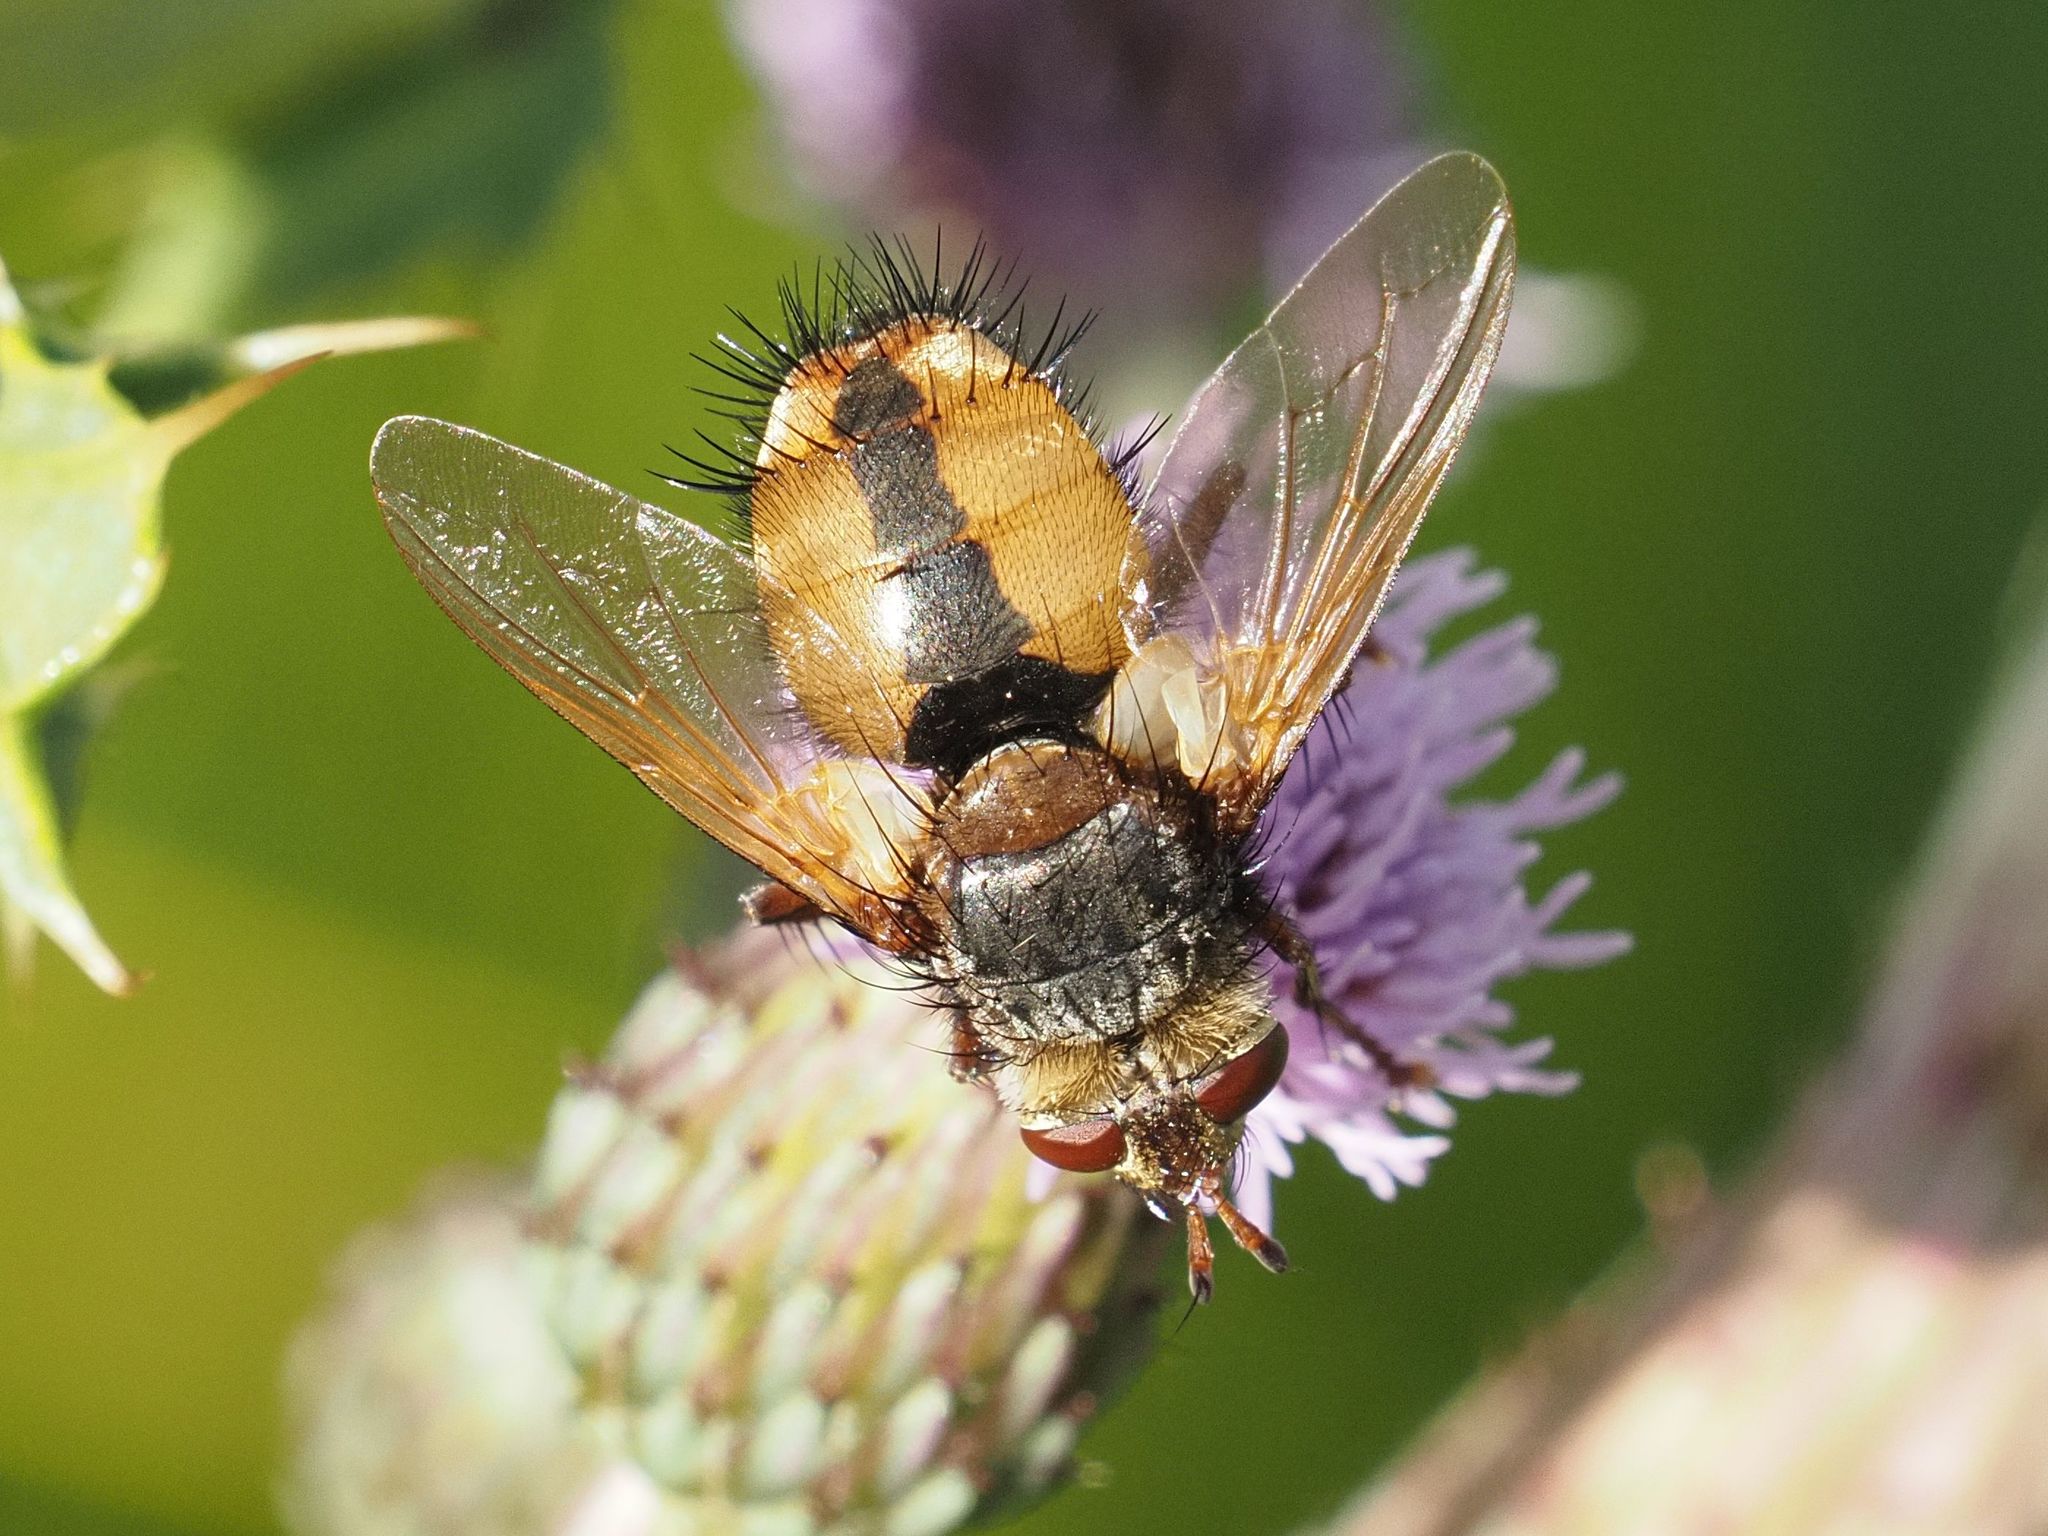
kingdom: Animalia
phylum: Arthropoda
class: Insecta
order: Diptera
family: Tachinidae
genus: Tachina
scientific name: Tachina fera
